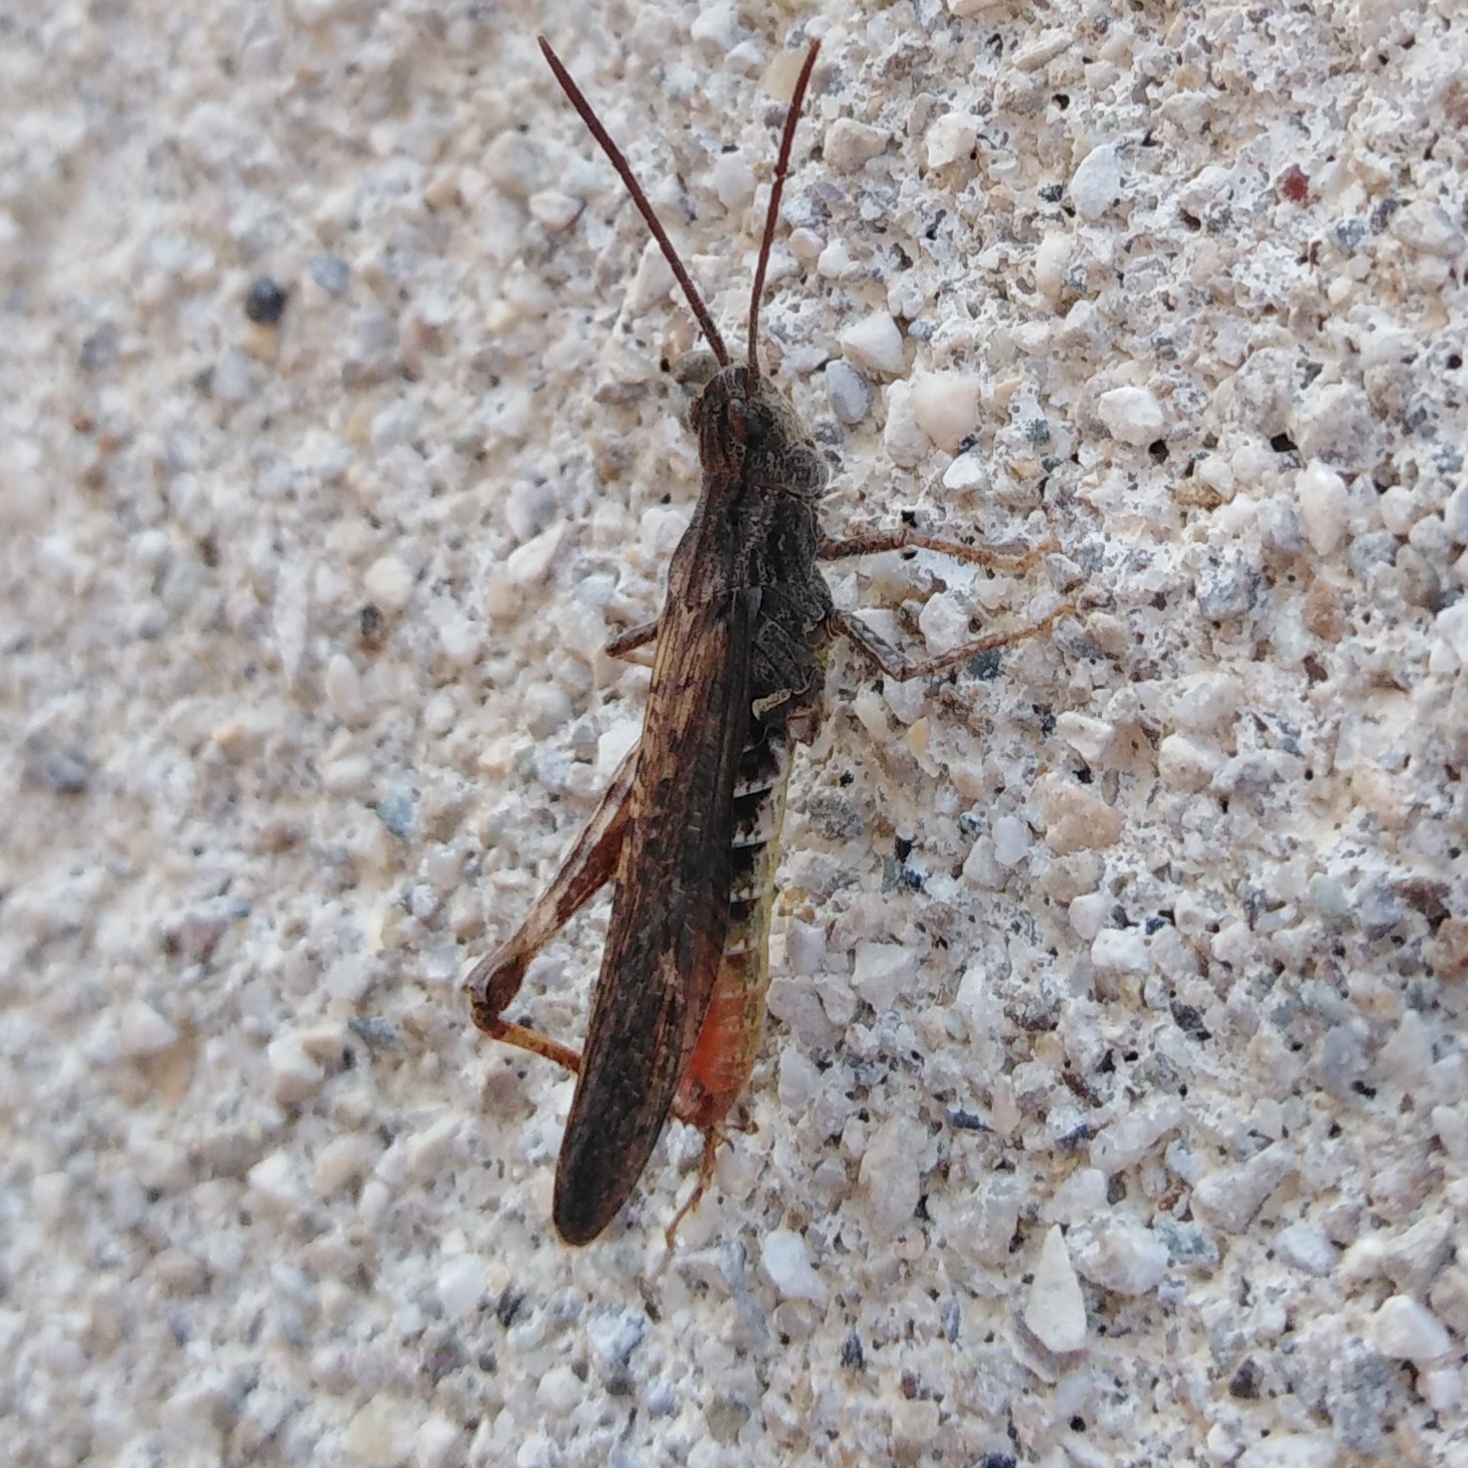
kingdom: Animalia
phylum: Arthropoda
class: Insecta
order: Orthoptera
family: Acrididae
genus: Chorthippus
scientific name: Chorthippus brunneus
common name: Field grasshopper
